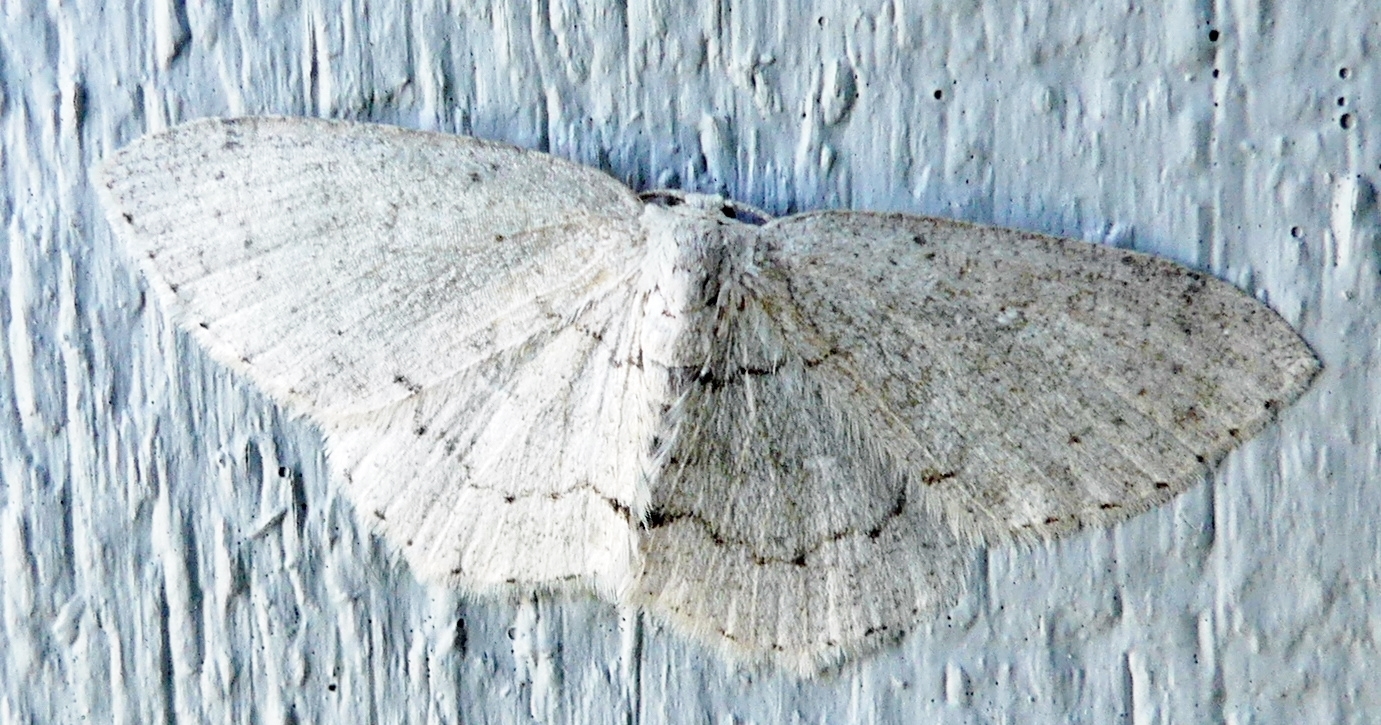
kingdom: Animalia
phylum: Arthropoda
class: Insecta
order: Lepidoptera
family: Geometridae
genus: Cyclophora
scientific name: Cyclophora pendulinaria
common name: Sweet fern geometer
